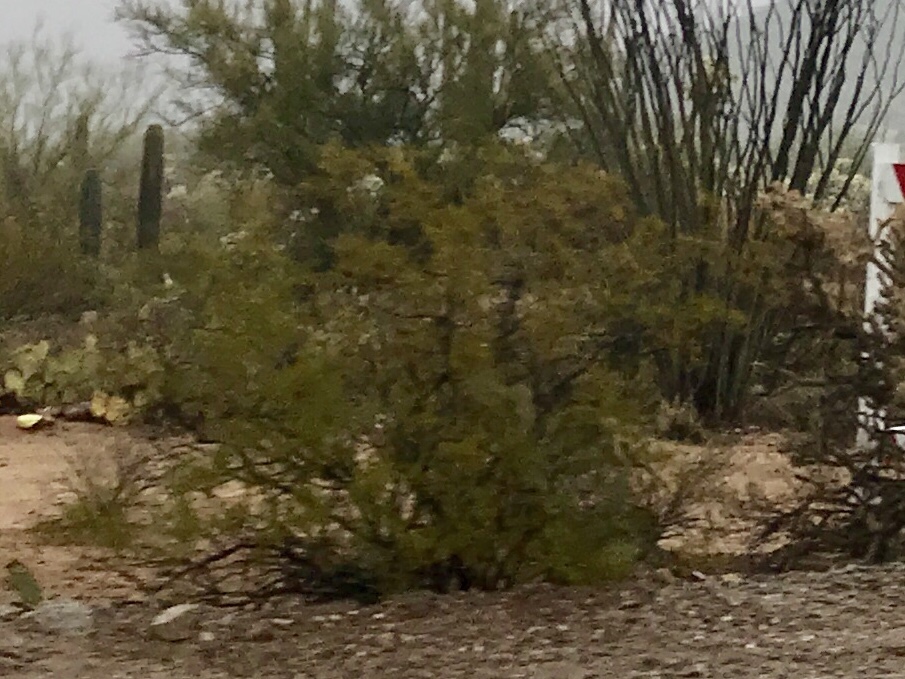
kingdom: Plantae
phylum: Tracheophyta
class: Magnoliopsida
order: Zygophyllales
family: Zygophyllaceae
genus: Larrea
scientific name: Larrea tridentata
